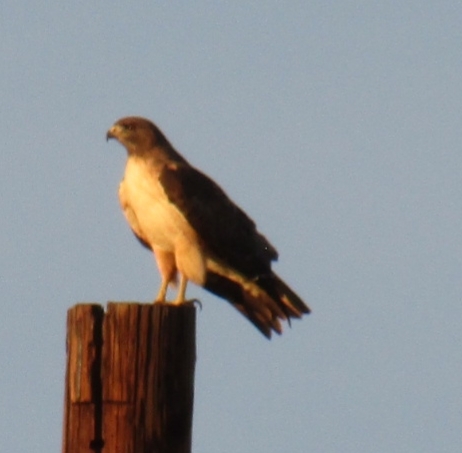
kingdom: Animalia
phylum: Chordata
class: Aves
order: Accipitriformes
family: Accipitridae
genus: Buteo
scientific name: Buteo jamaicensis
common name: Red-tailed hawk
